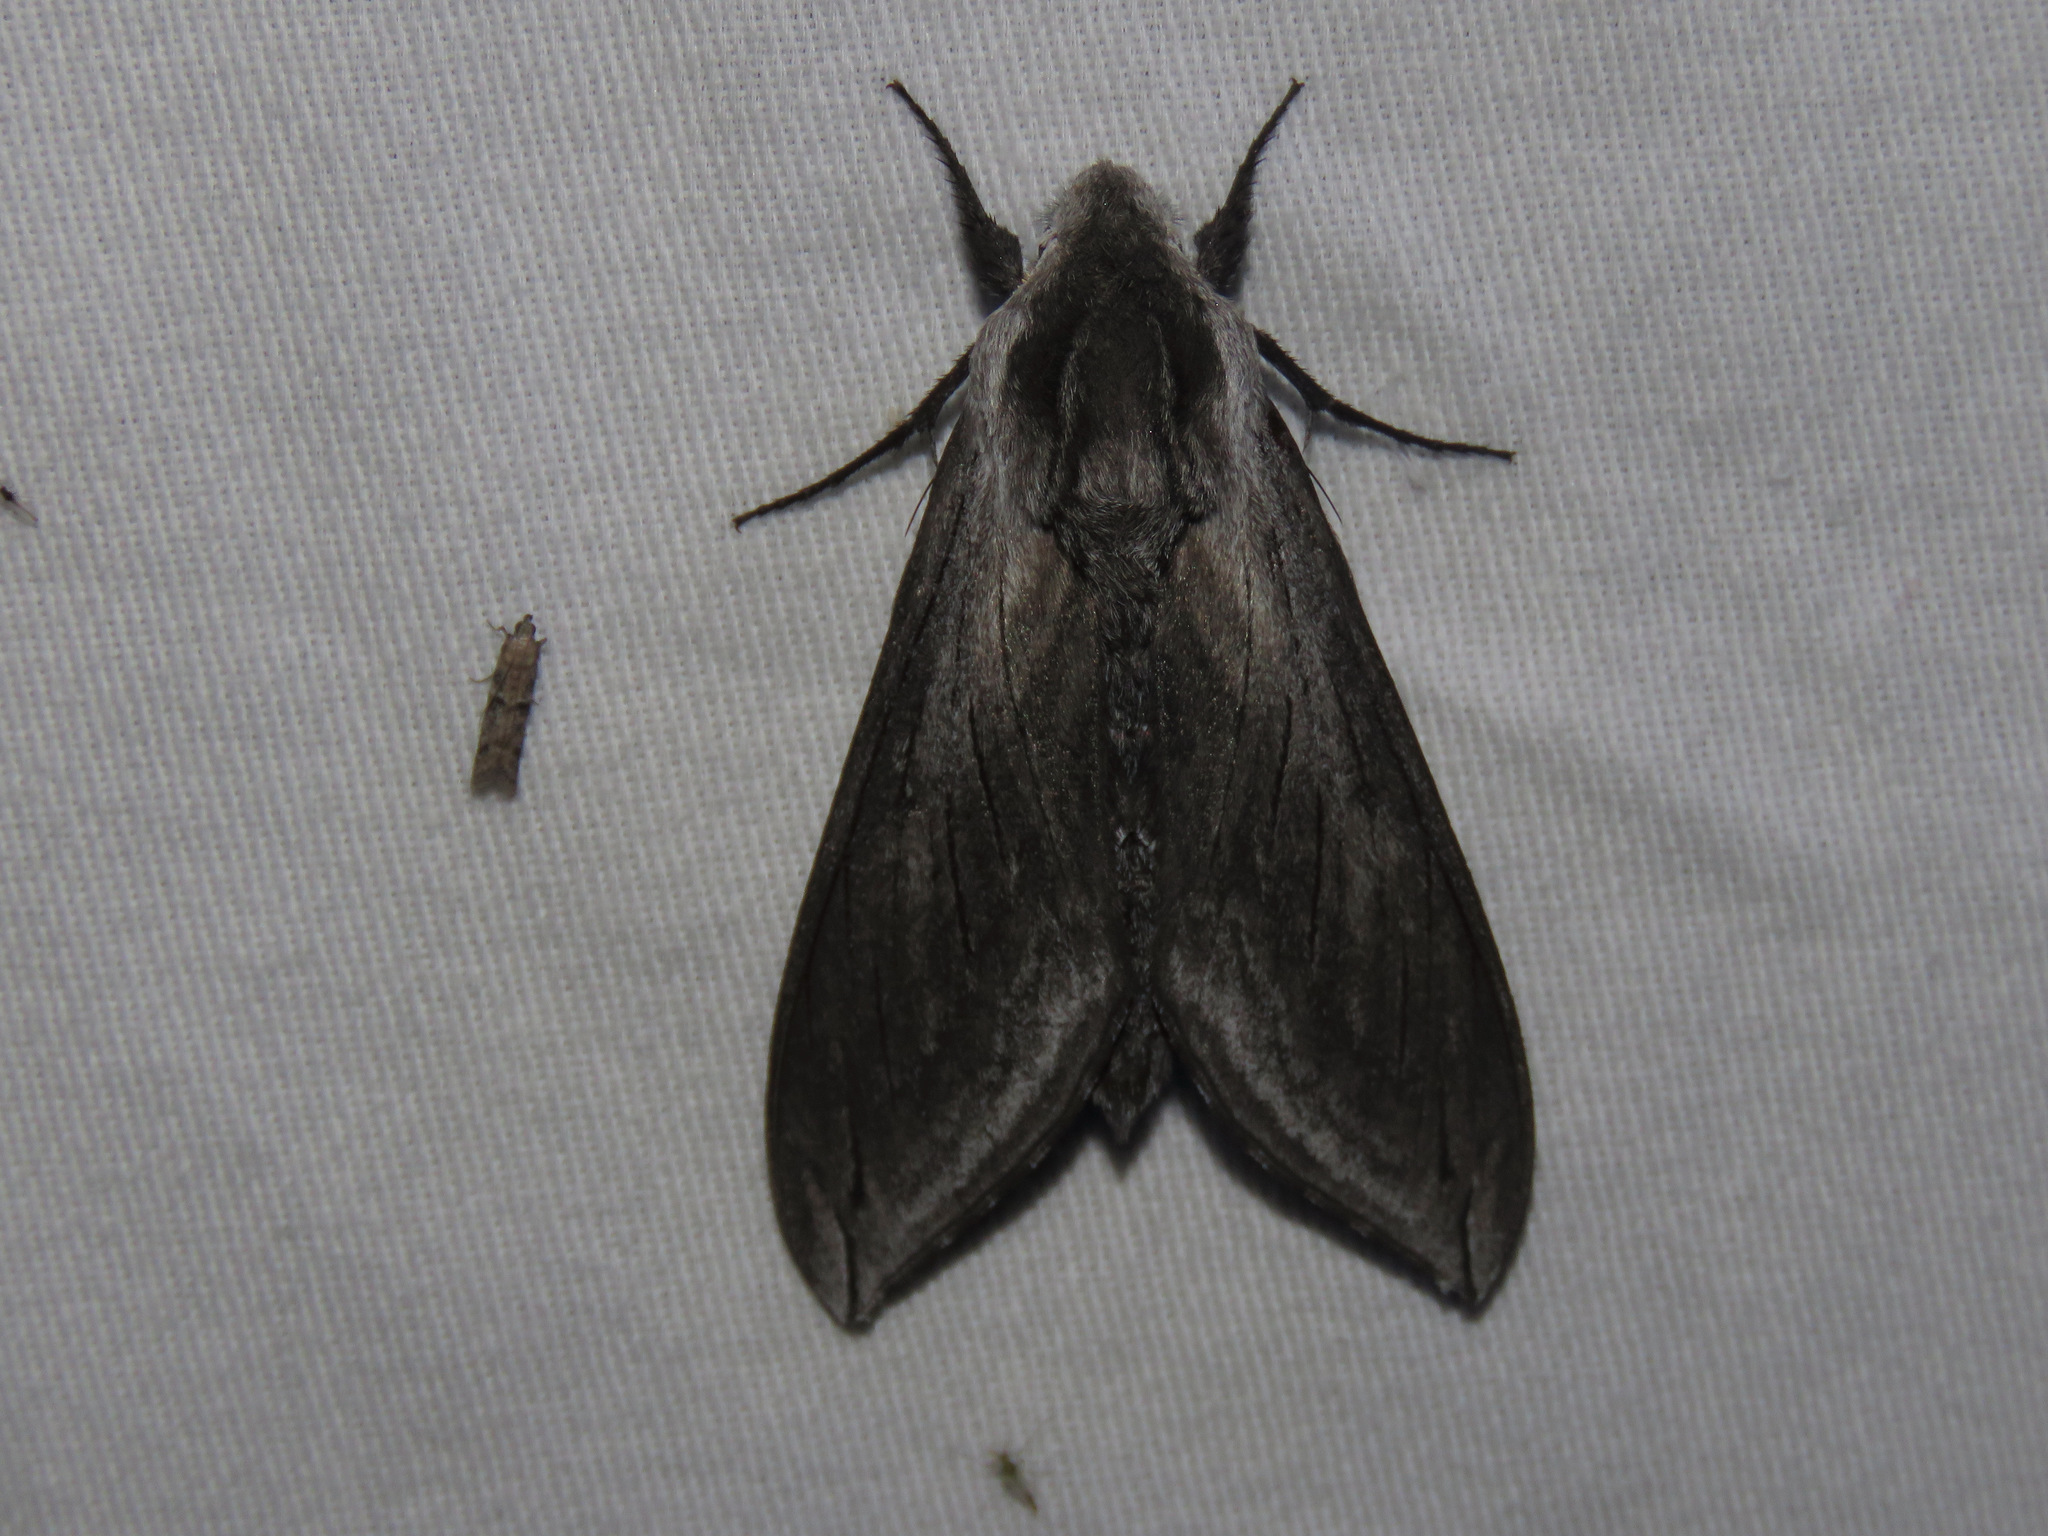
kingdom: Animalia
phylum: Arthropoda
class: Insecta
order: Lepidoptera
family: Sphingidae
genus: Sphinx
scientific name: Sphinx perelegans
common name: Elegant sphinx
